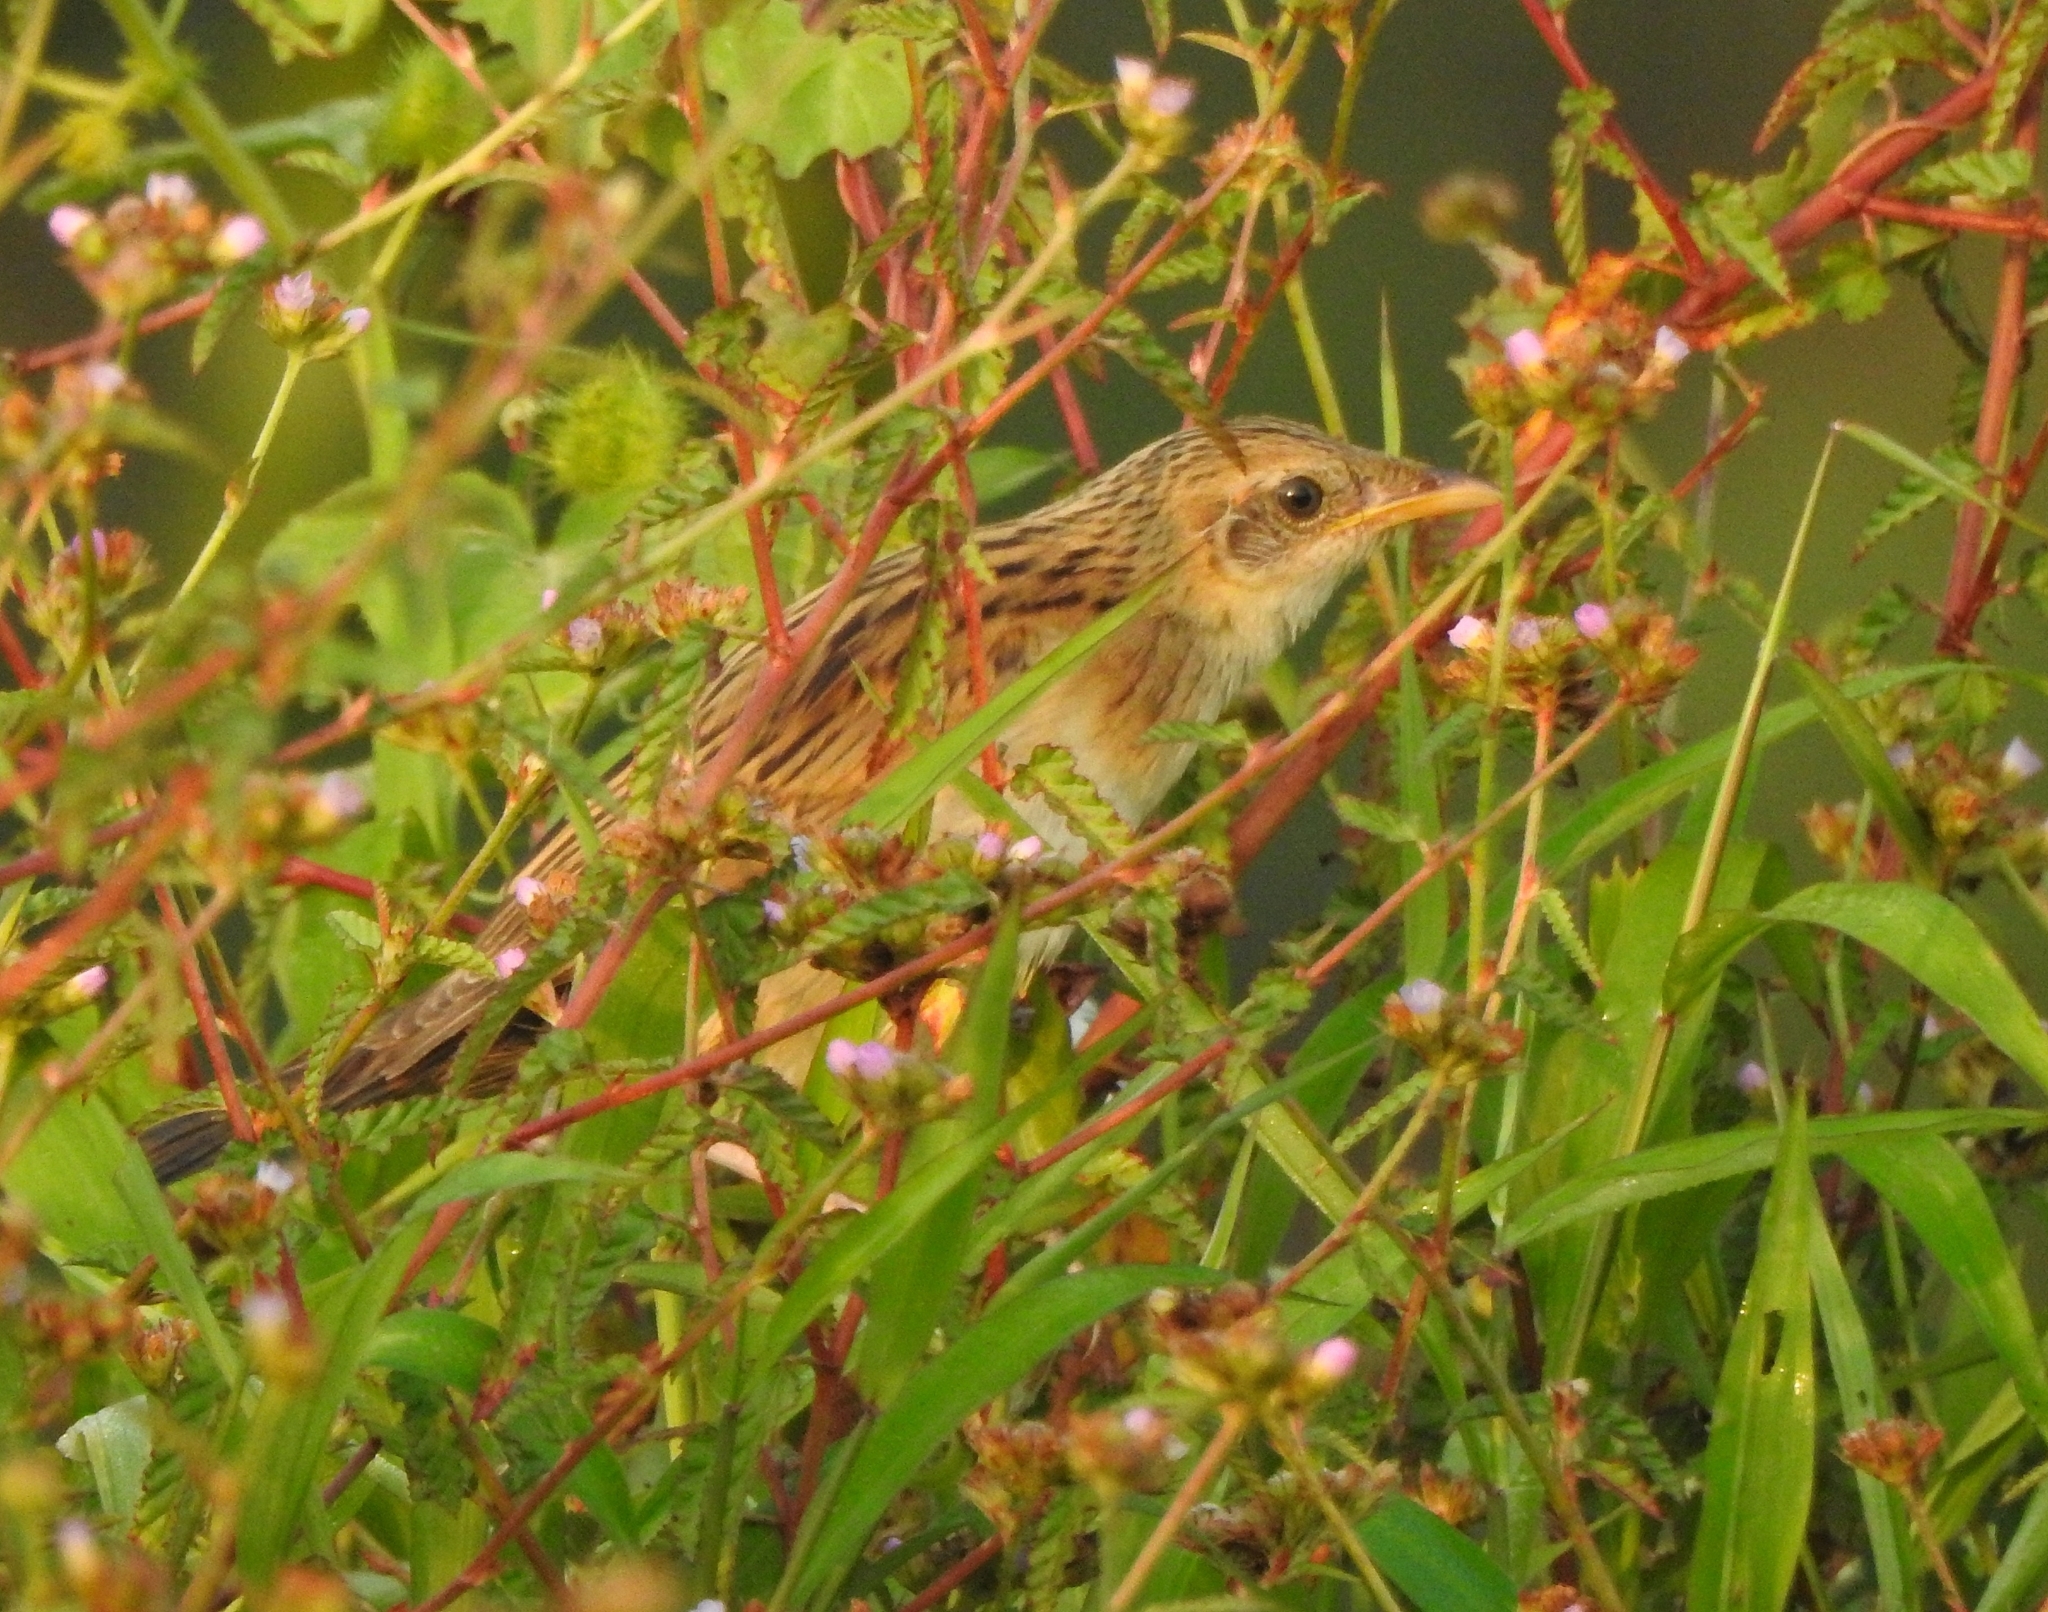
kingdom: Animalia
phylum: Chordata
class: Aves
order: Passeriformes
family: Locustellidae
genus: Chaetornis
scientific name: Chaetornis striata
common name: Bristled grassbird
